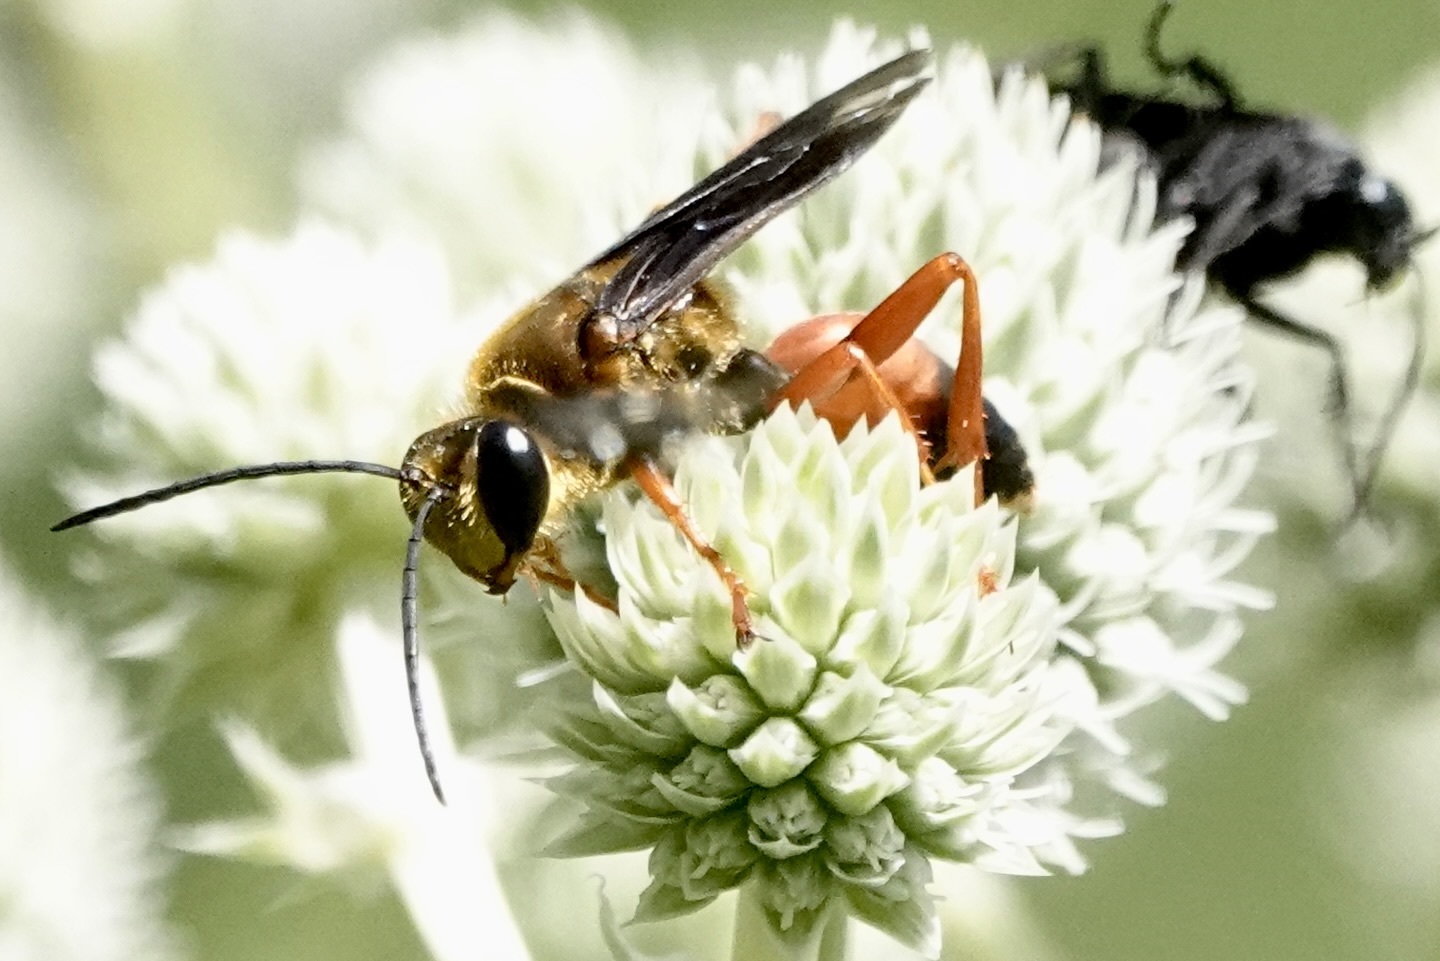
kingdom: Animalia
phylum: Arthropoda
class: Insecta
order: Hymenoptera
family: Sphecidae
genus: Sphex
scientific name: Sphex ichneumoneus
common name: Great golden digger wasp
